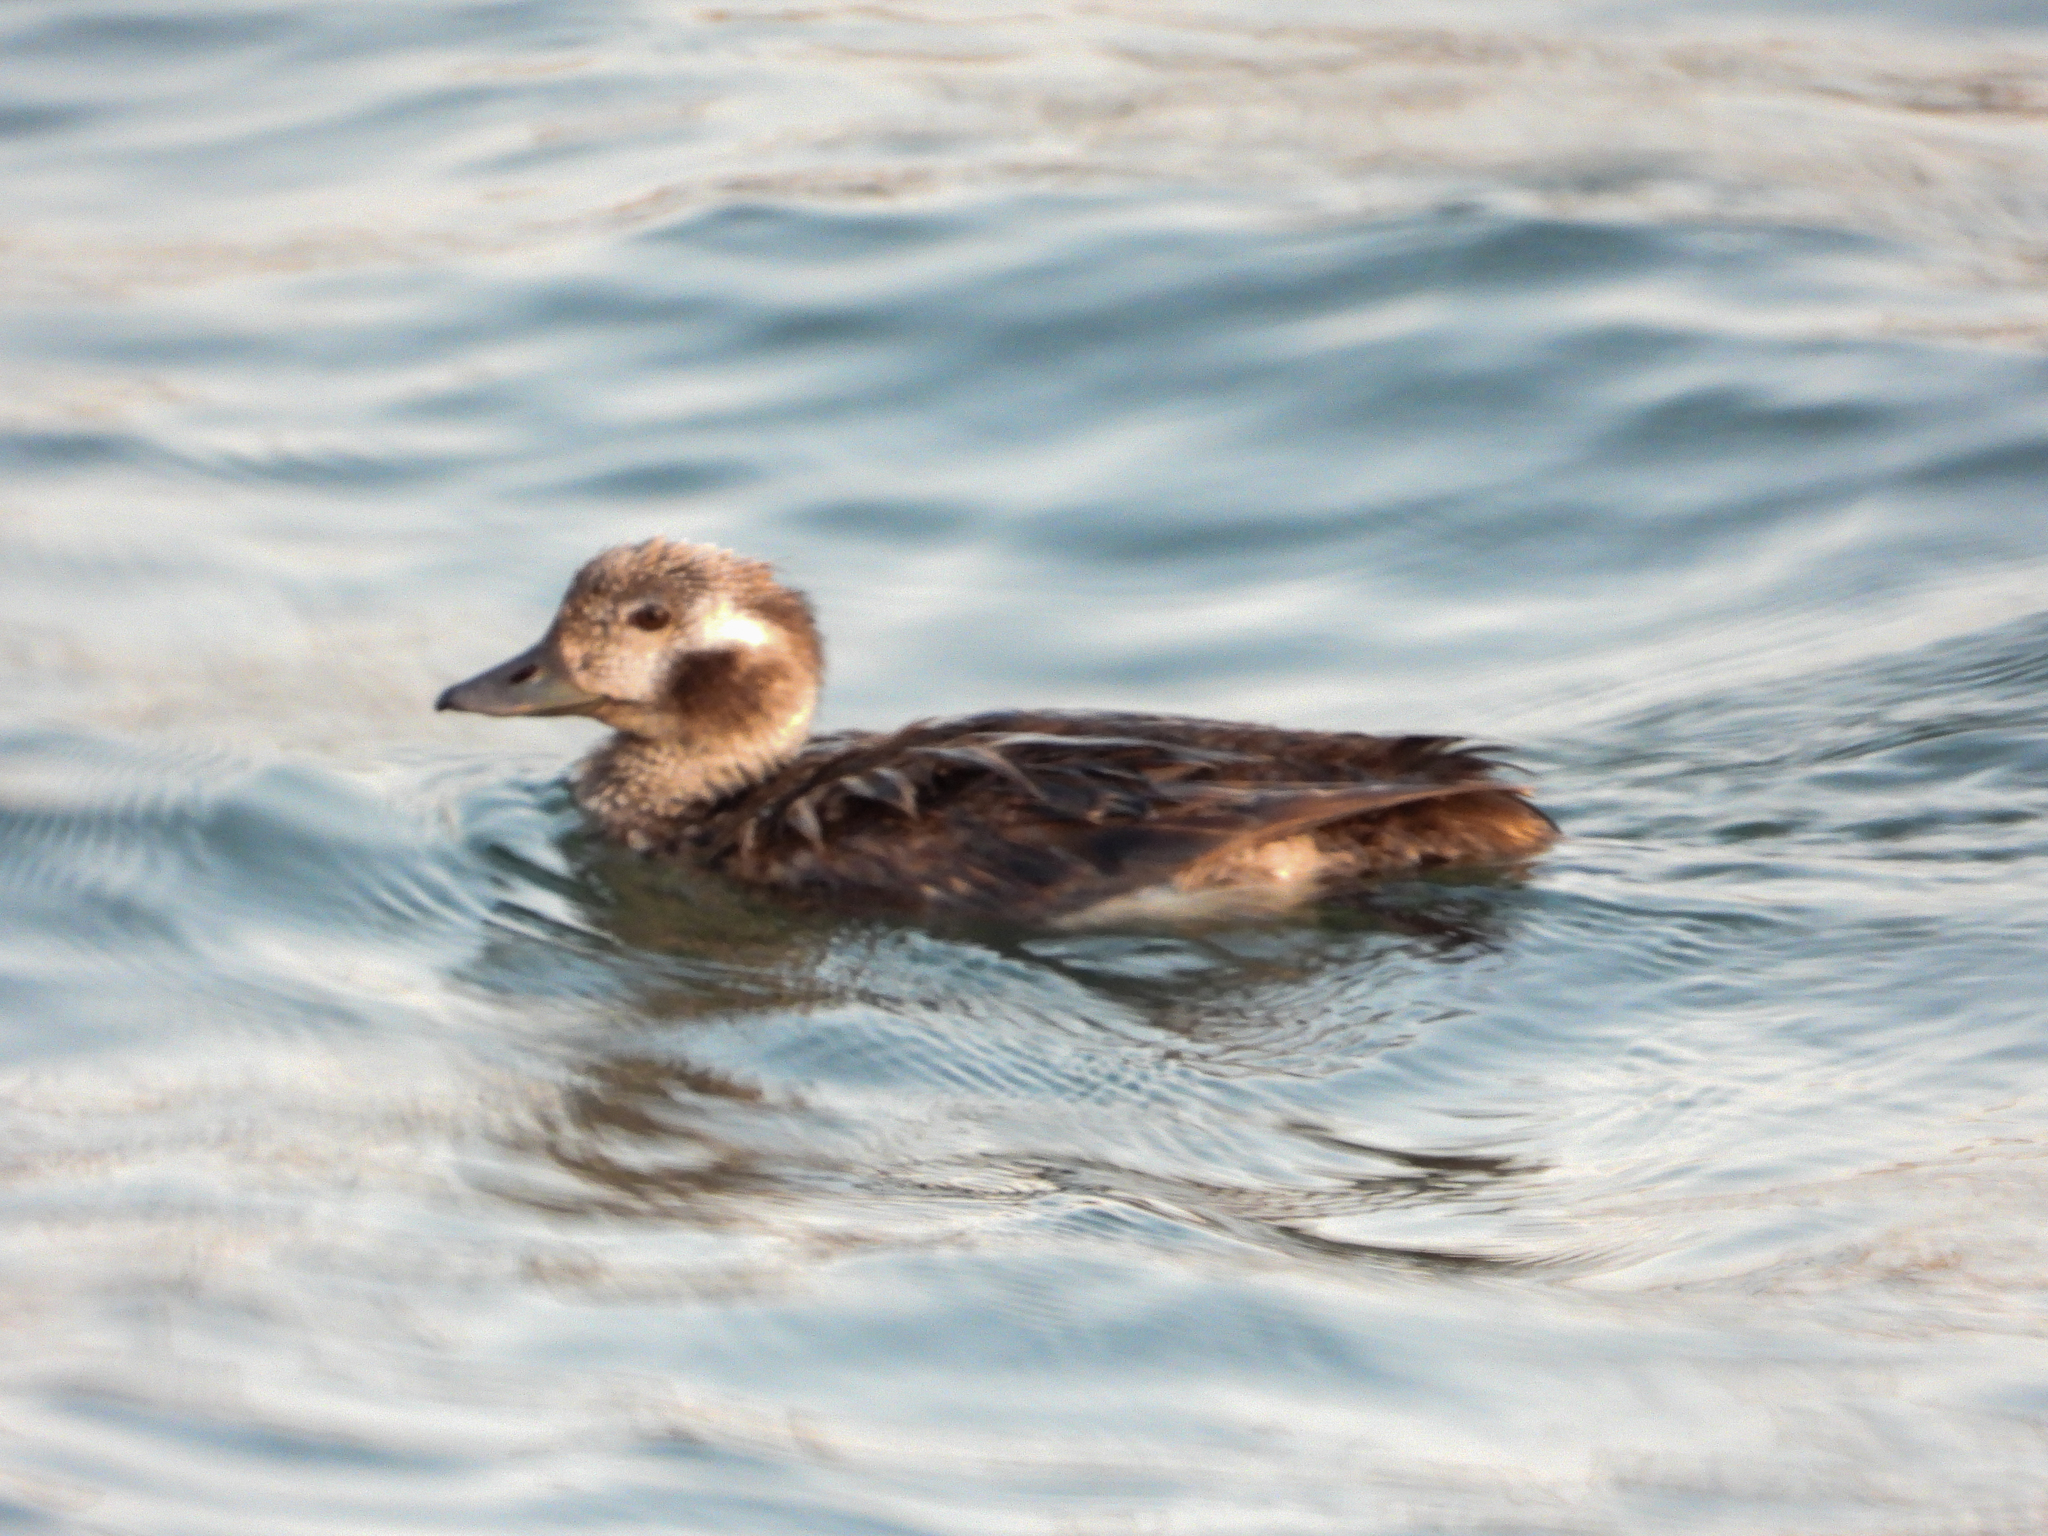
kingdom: Animalia
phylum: Chordata
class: Aves
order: Anseriformes
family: Anatidae
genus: Clangula
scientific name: Clangula hyemalis
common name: Long-tailed duck
